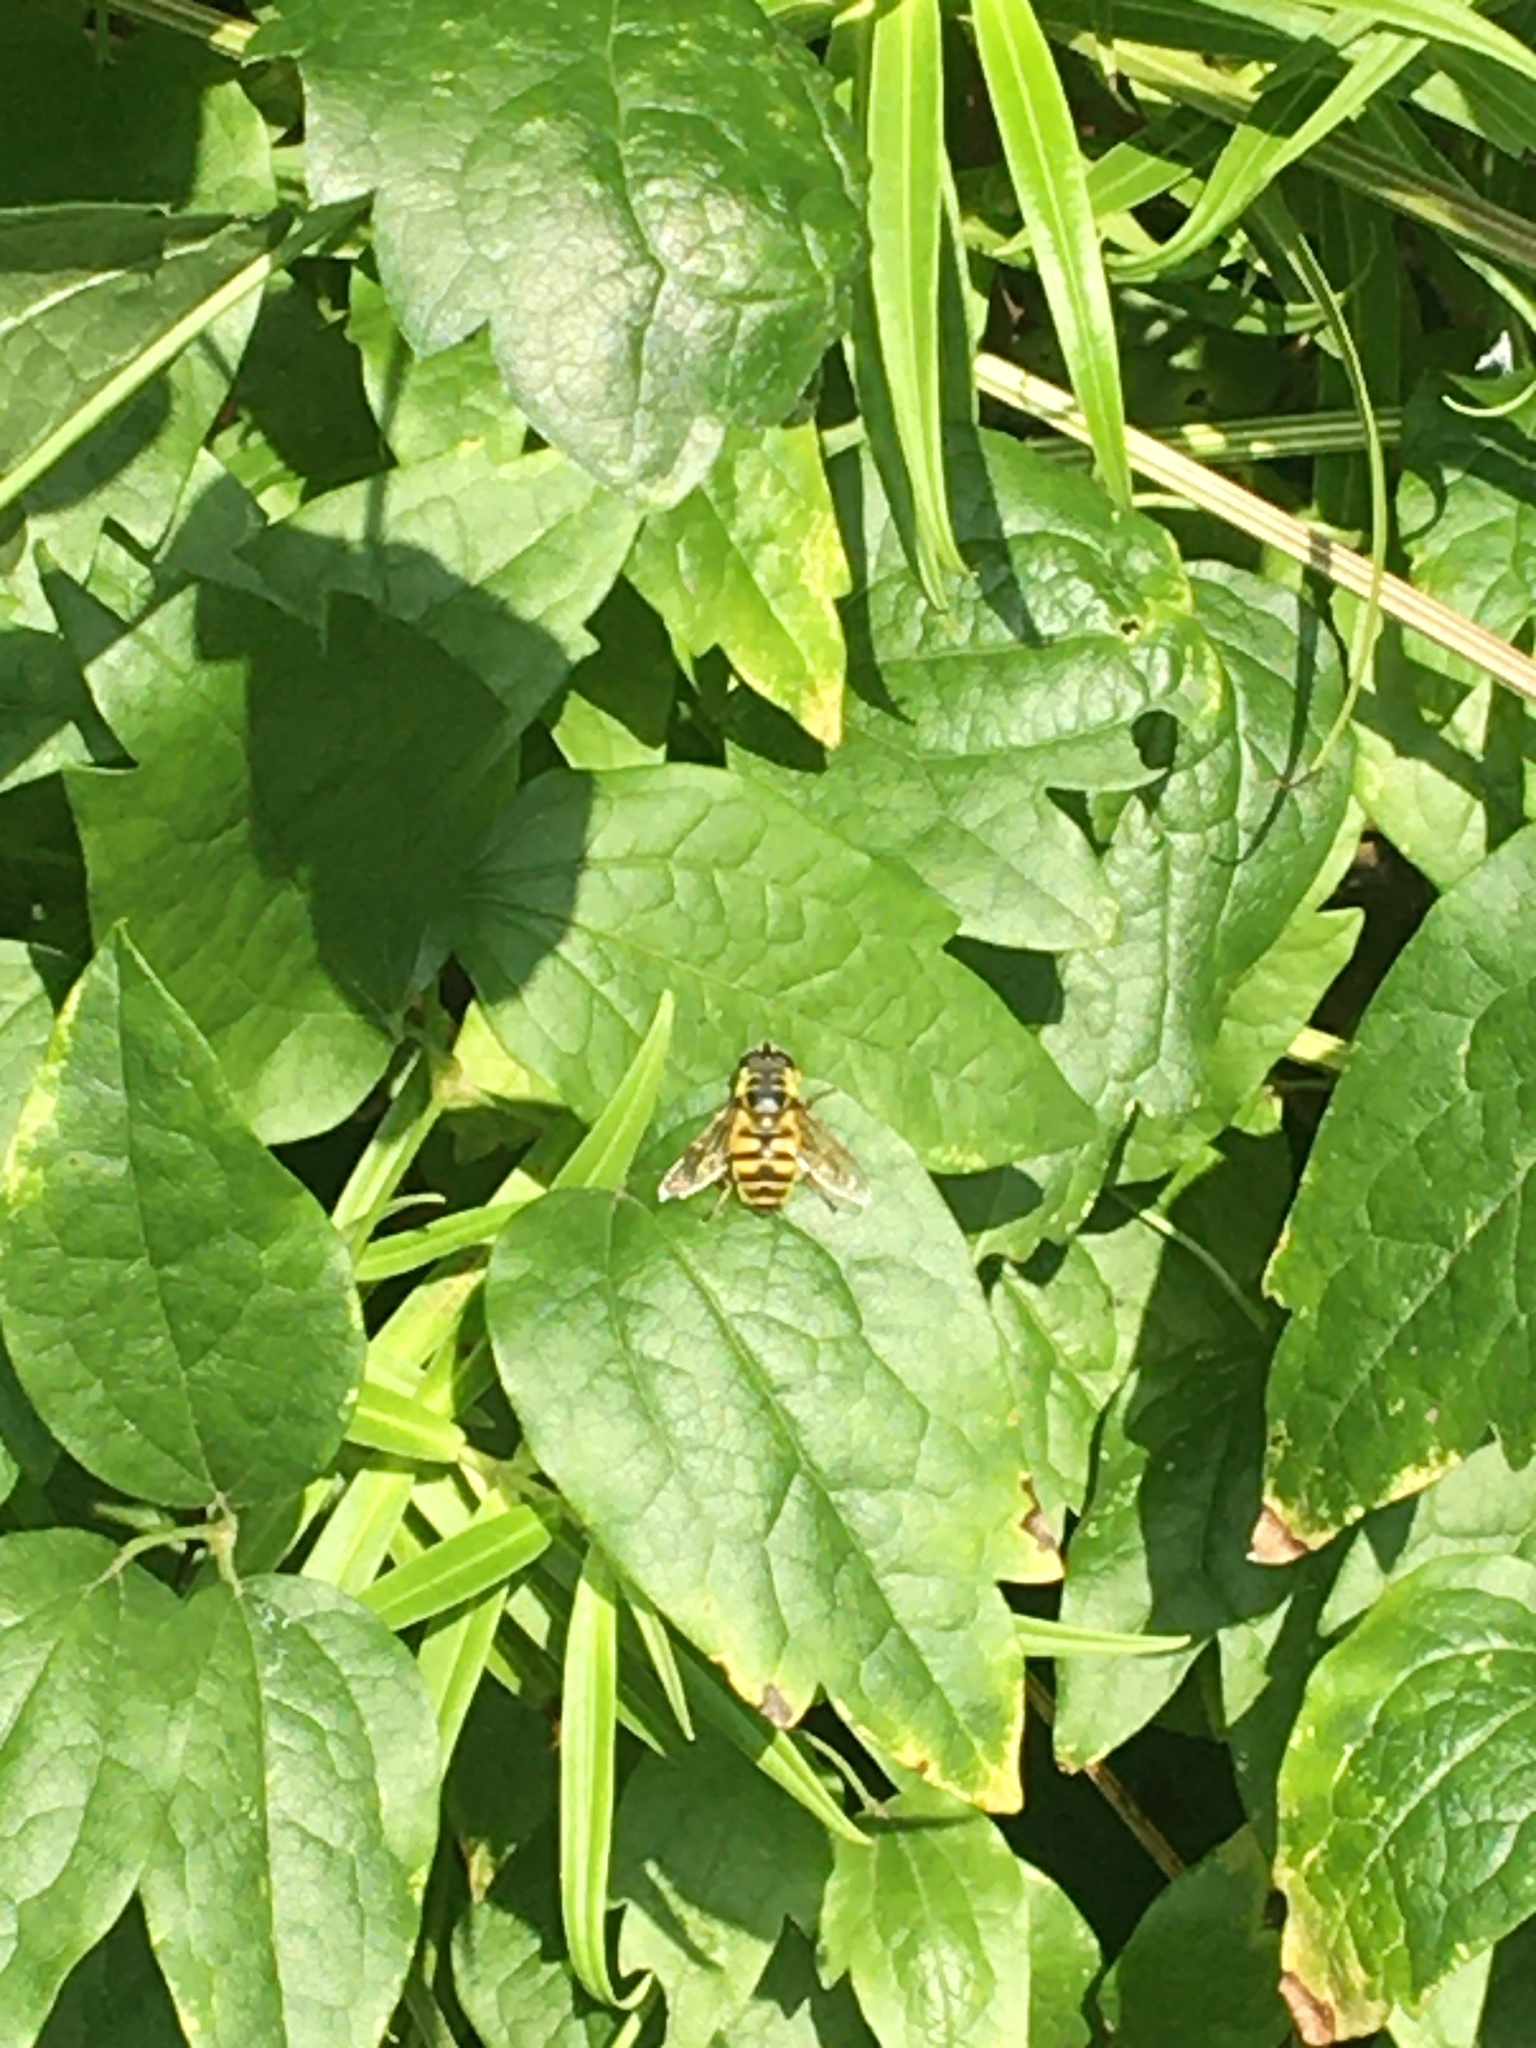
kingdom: Animalia
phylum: Arthropoda
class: Insecta
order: Diptera
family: Syrphidae
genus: Myathropa
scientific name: Myathropa florea
